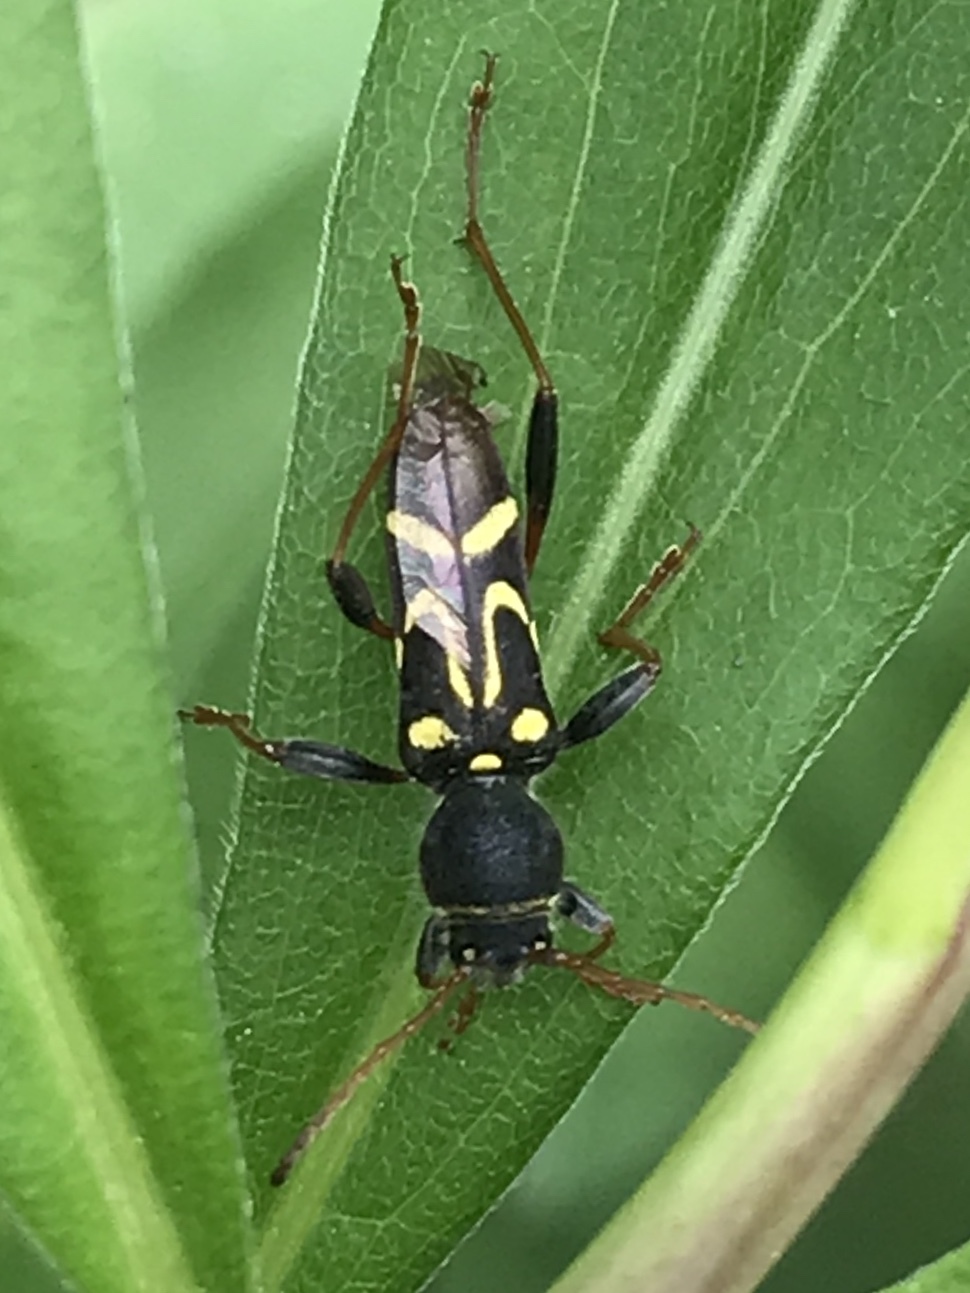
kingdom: Animalia
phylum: Arthropoda
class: Insecta
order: Coleoptera
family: Cerambycidae
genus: Clytus
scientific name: Clytus ruricola
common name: Round-necked longhorn beetle
